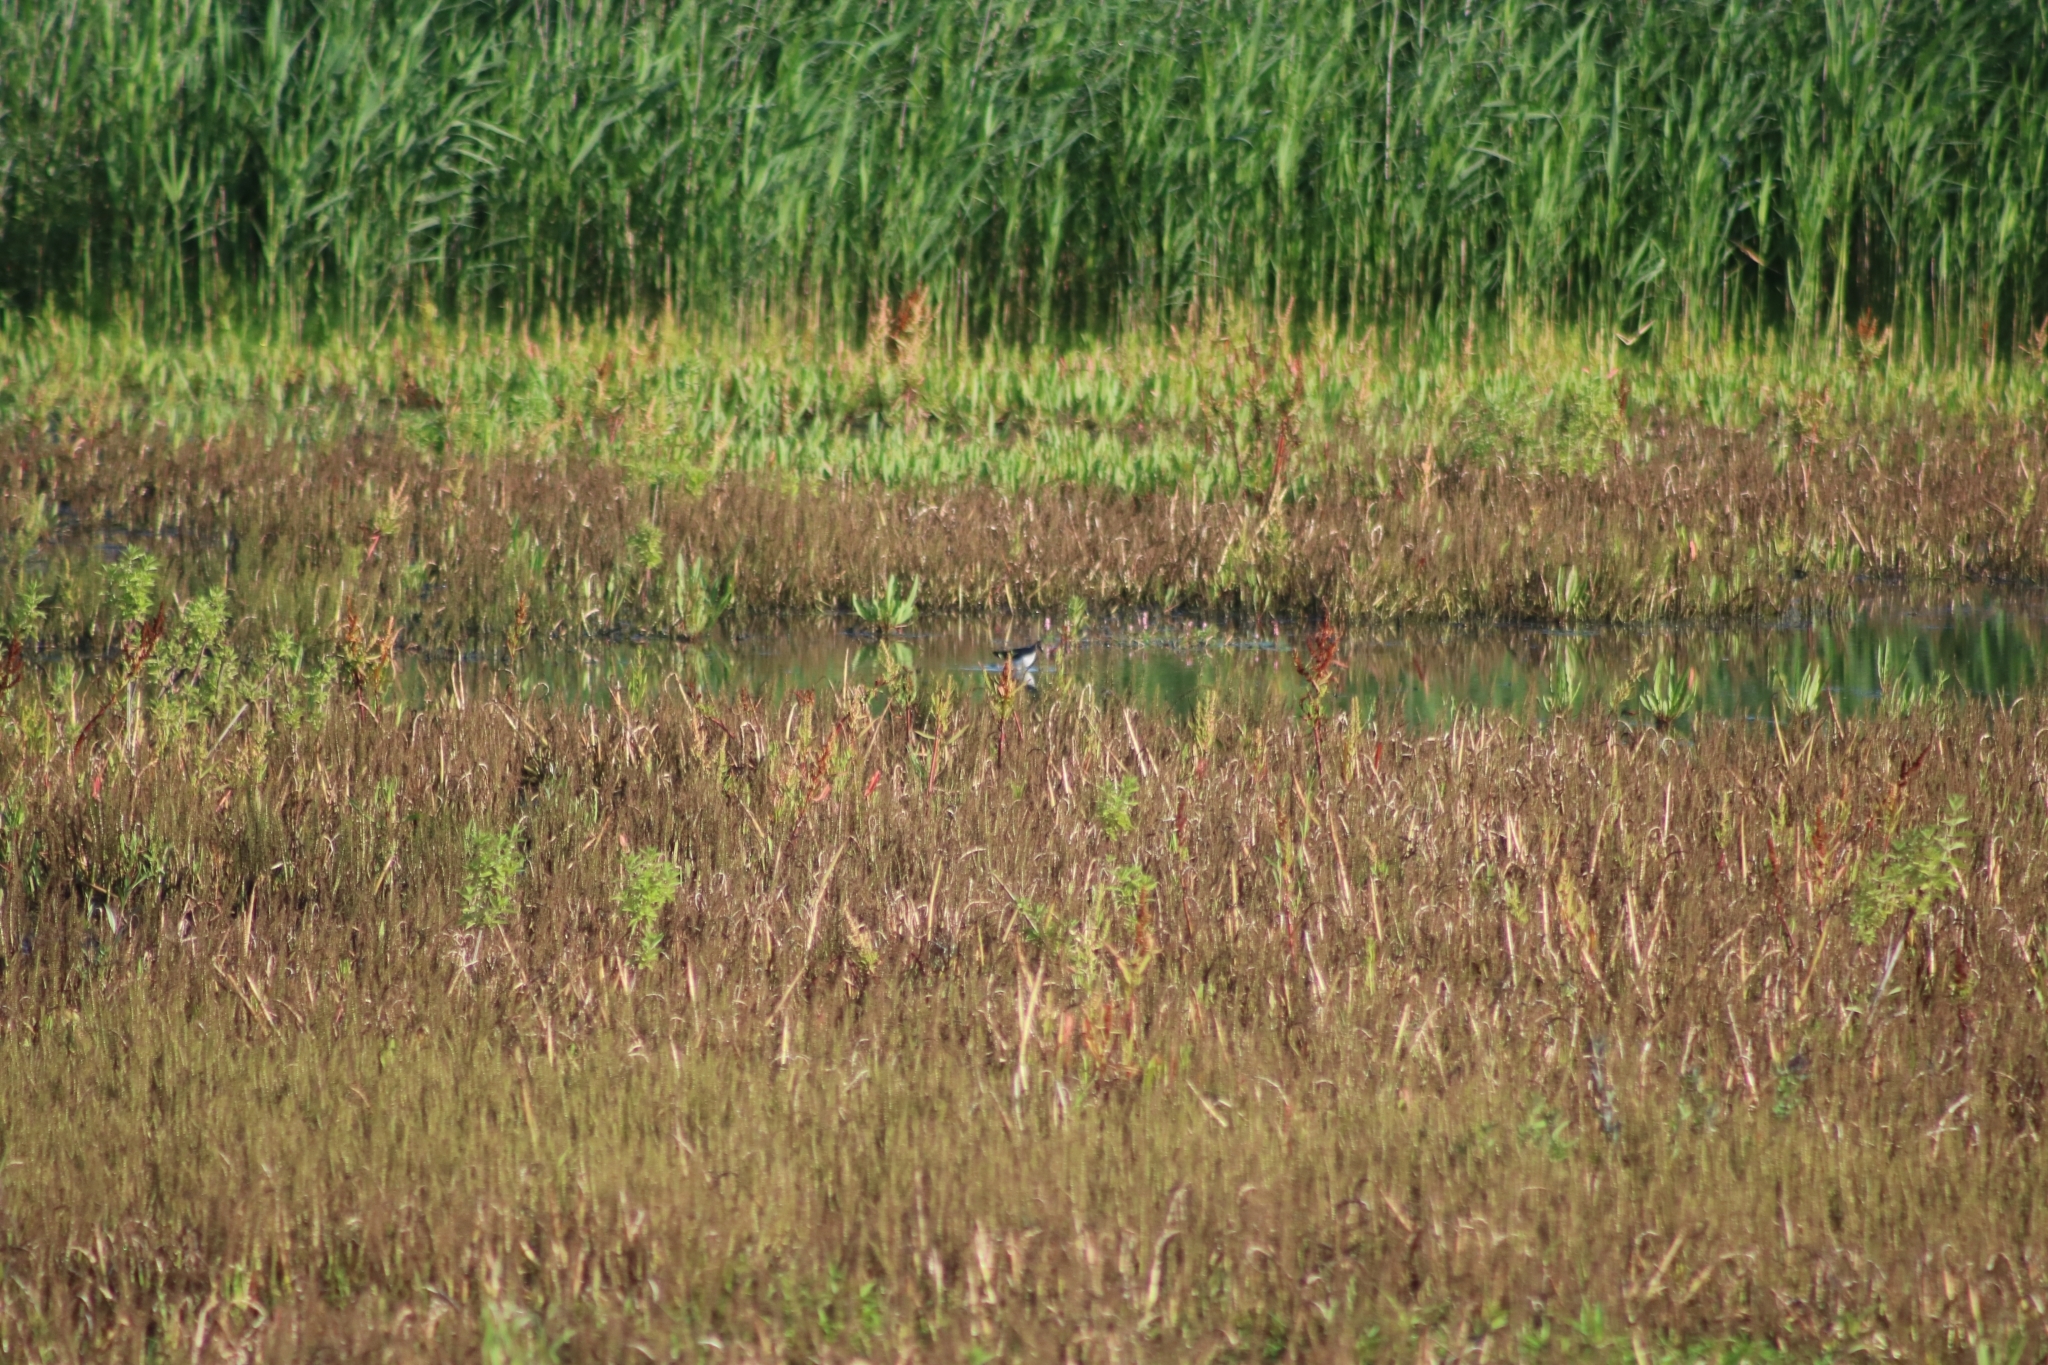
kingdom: Animalia
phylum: Chordata
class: Aves
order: Charadriiformes
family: Scolopacidae
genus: Tringa
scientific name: Tringa ochropus
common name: Green sandpiper
